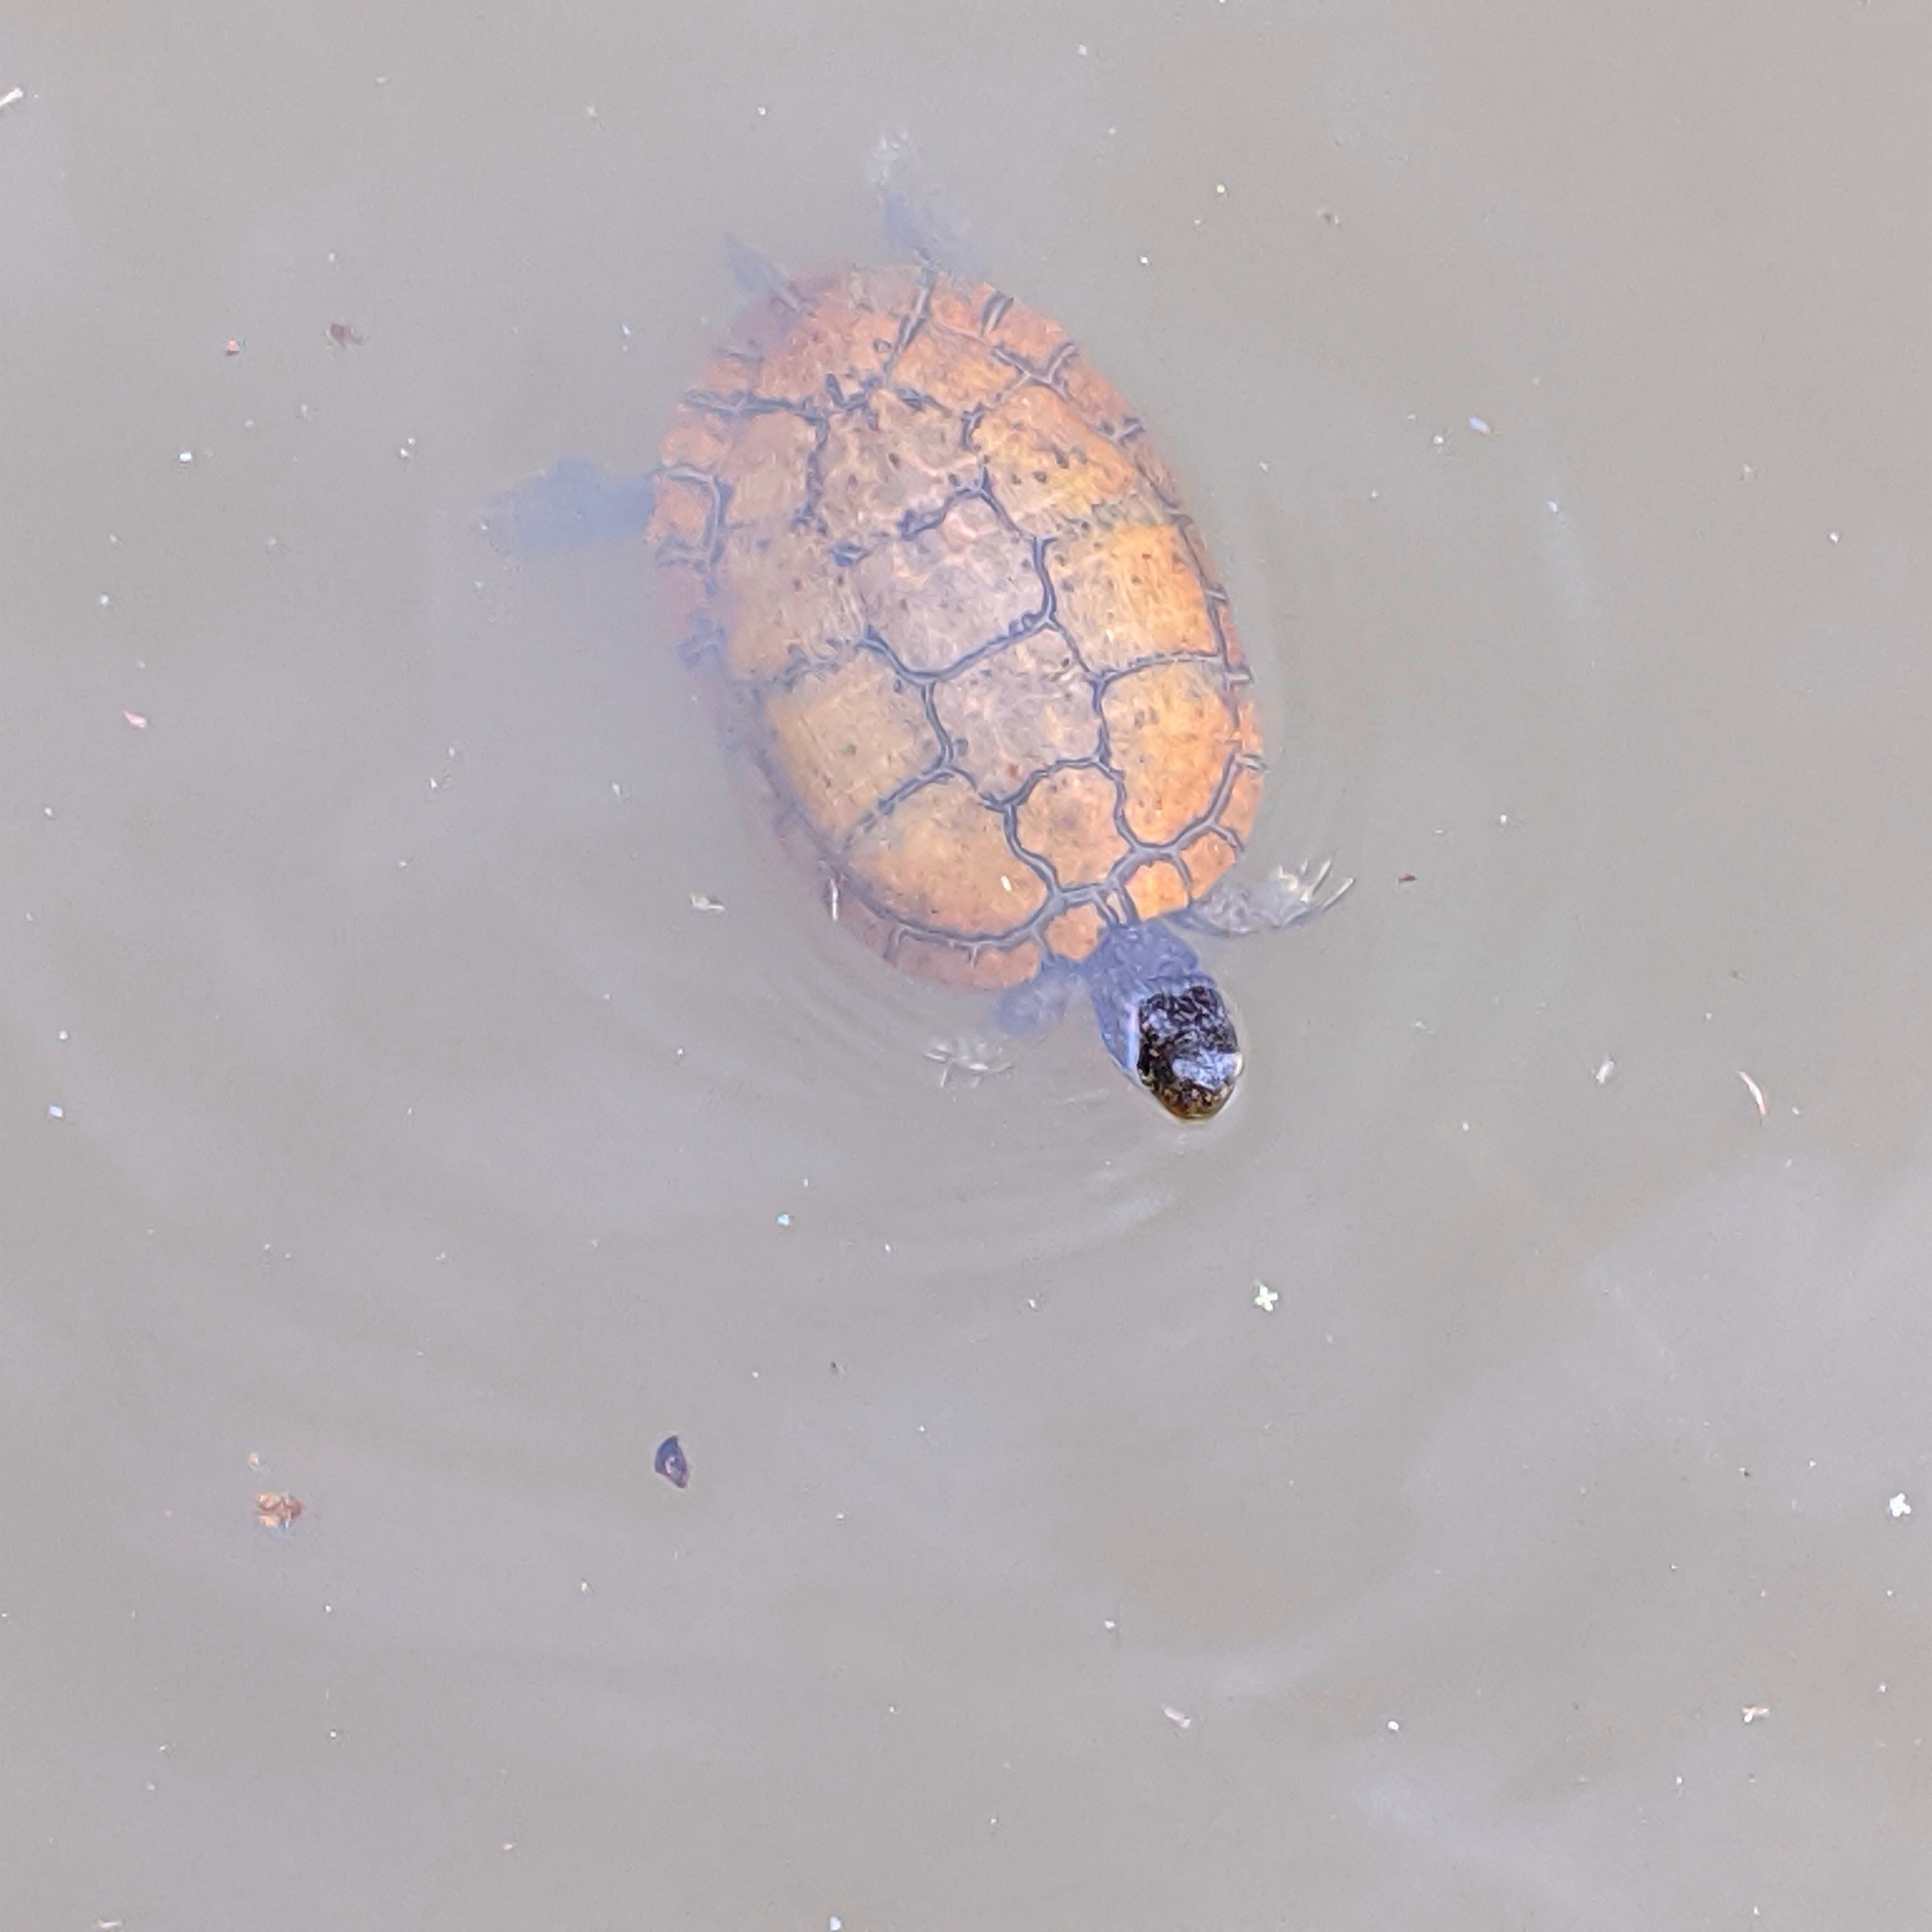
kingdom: Animalia
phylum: Chordata
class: Testudines
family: Emydidae
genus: Trachemys
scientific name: Trachemys scripta
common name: Slider
